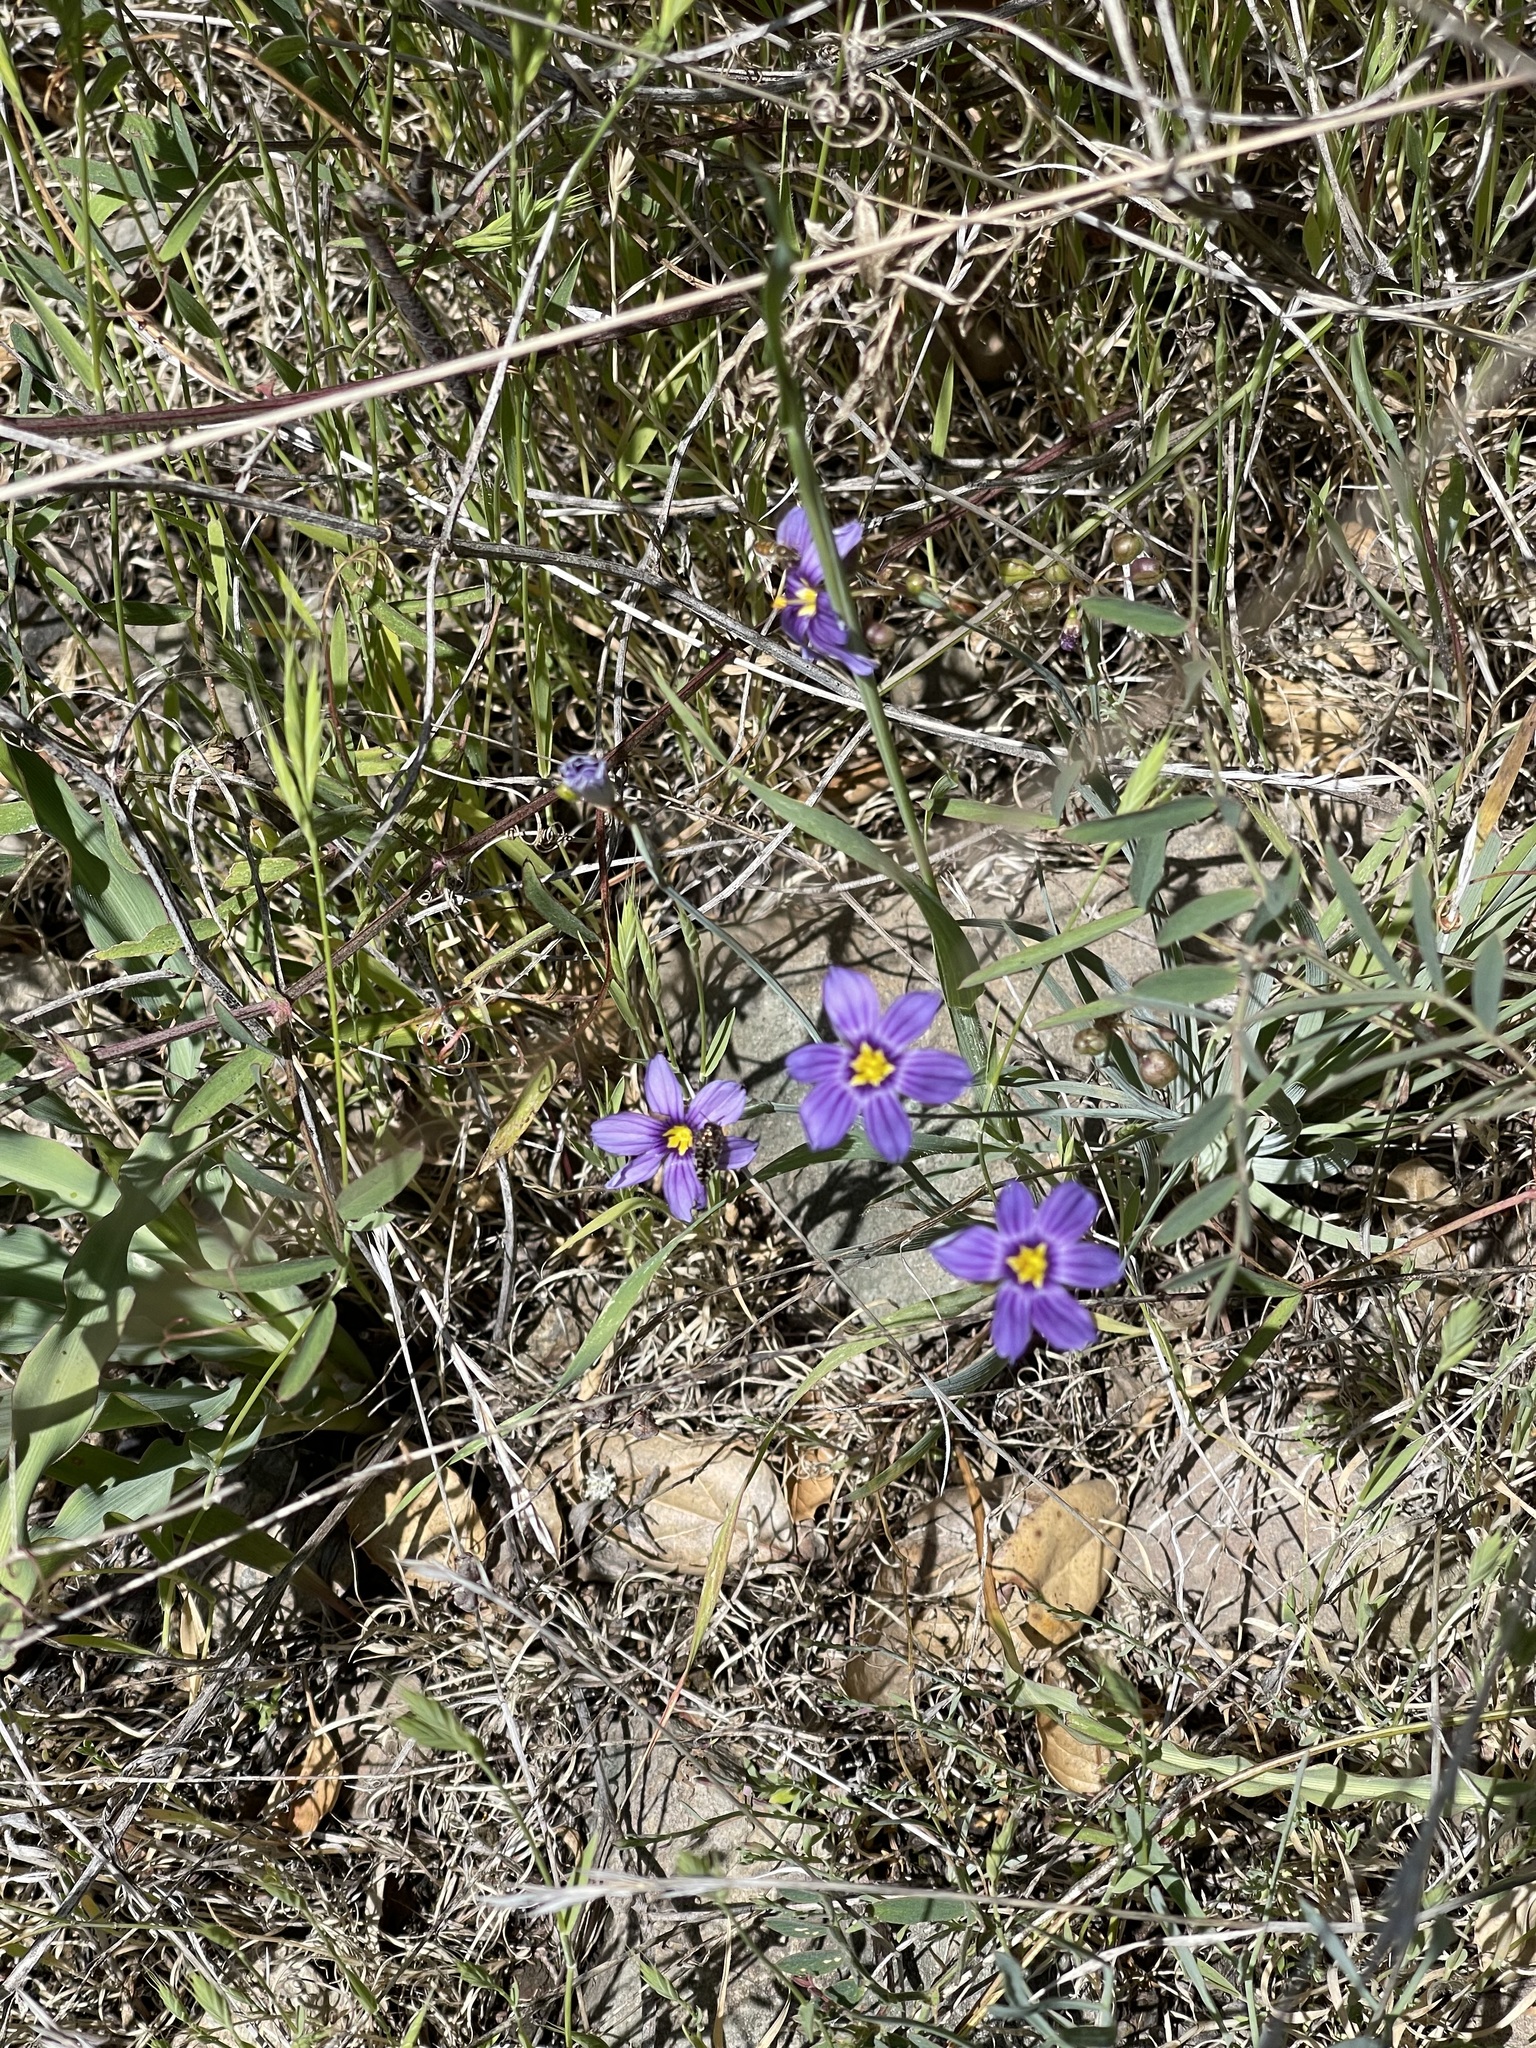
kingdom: Plantae
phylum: Tracheophyta
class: Liliopsida
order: Asparagales
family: Iridaceae
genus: Sisyrinchium
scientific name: Sisyrinchium bellum
